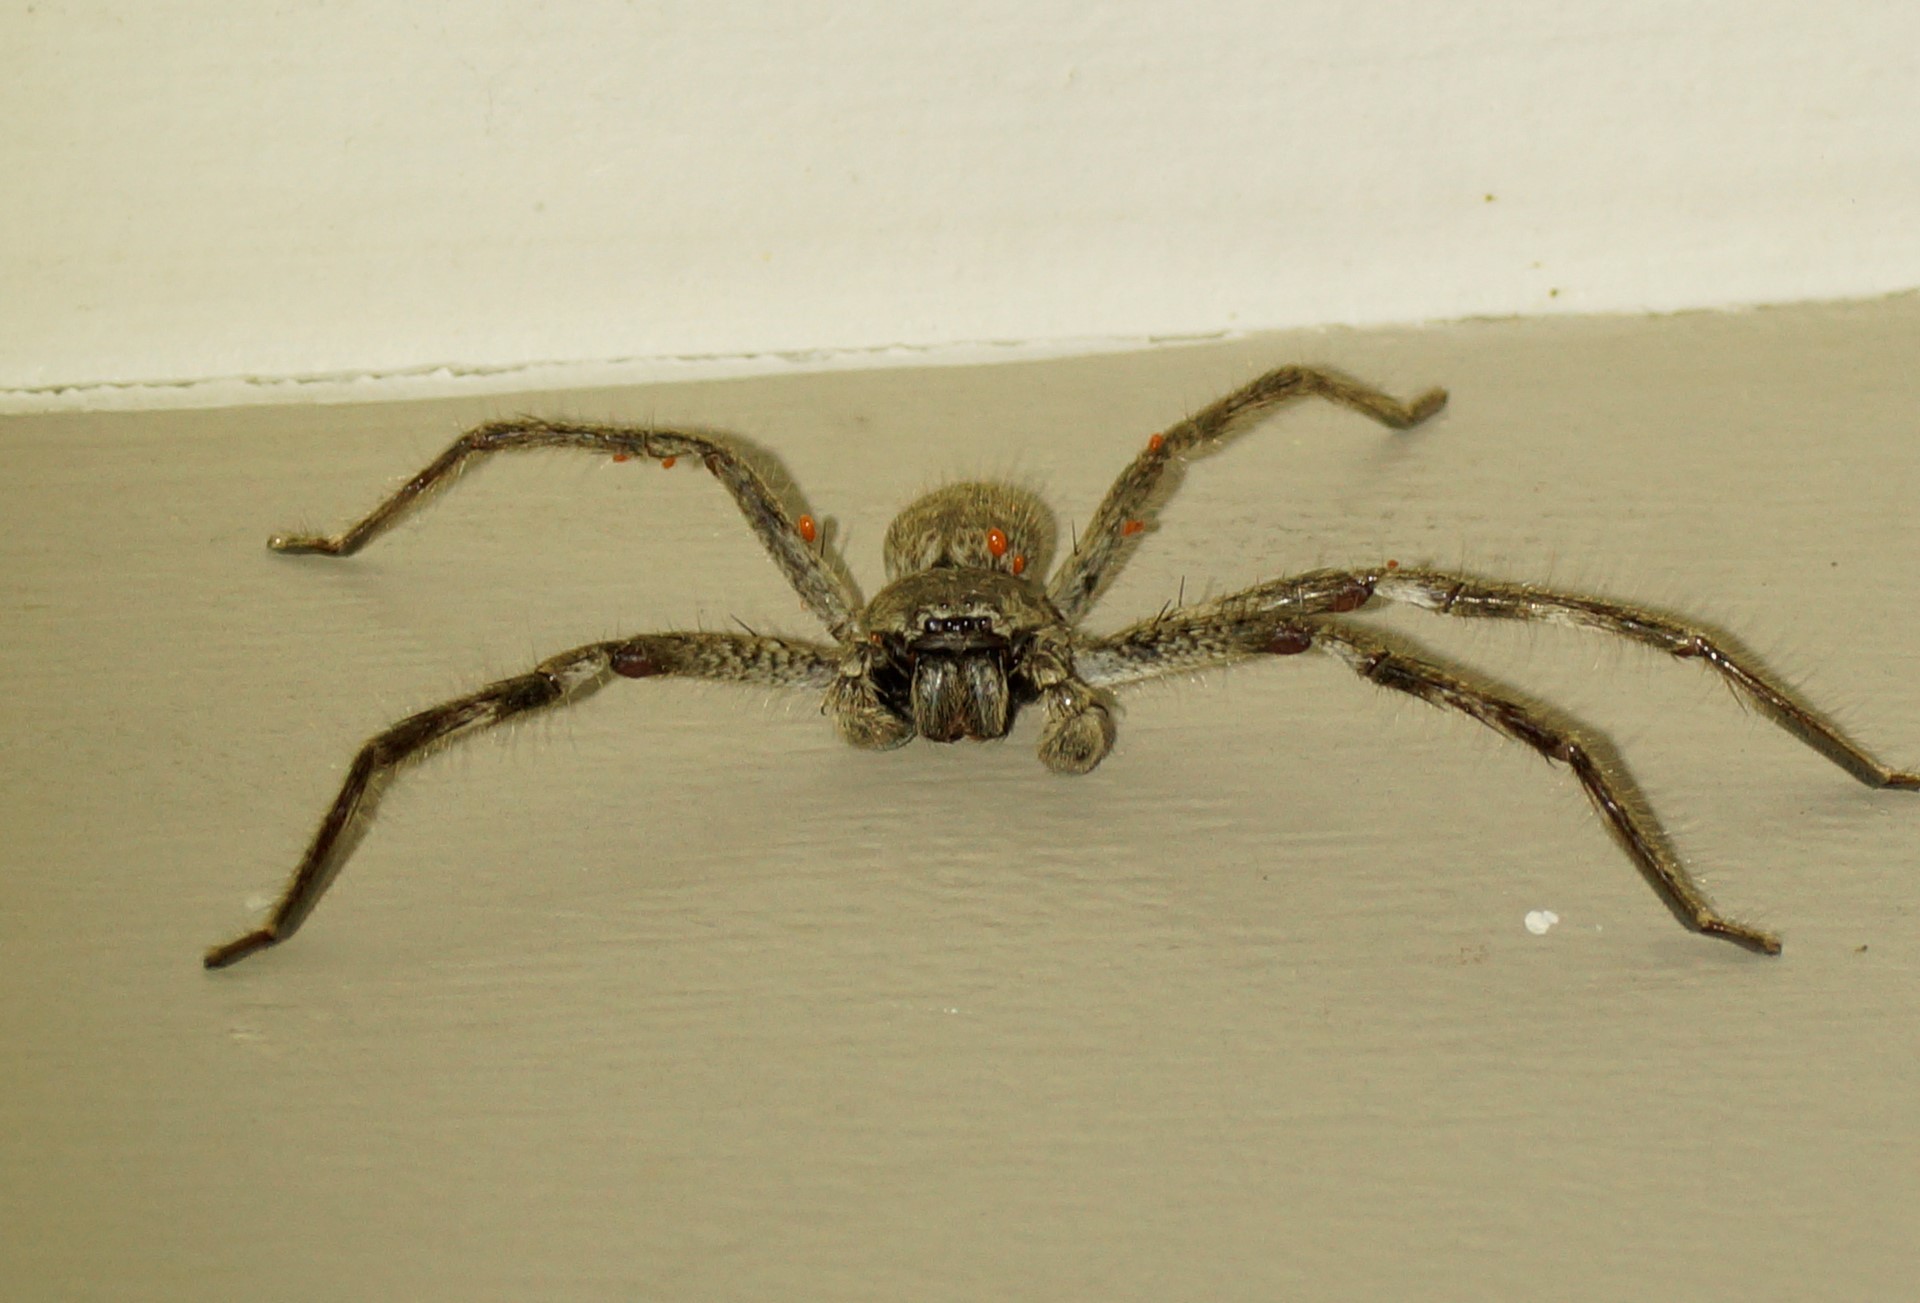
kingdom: Animalia
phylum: Arthropoda
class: Arachnida
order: Araneae
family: Sparassidae
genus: Isopedella
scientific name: Isopedella victorialis
